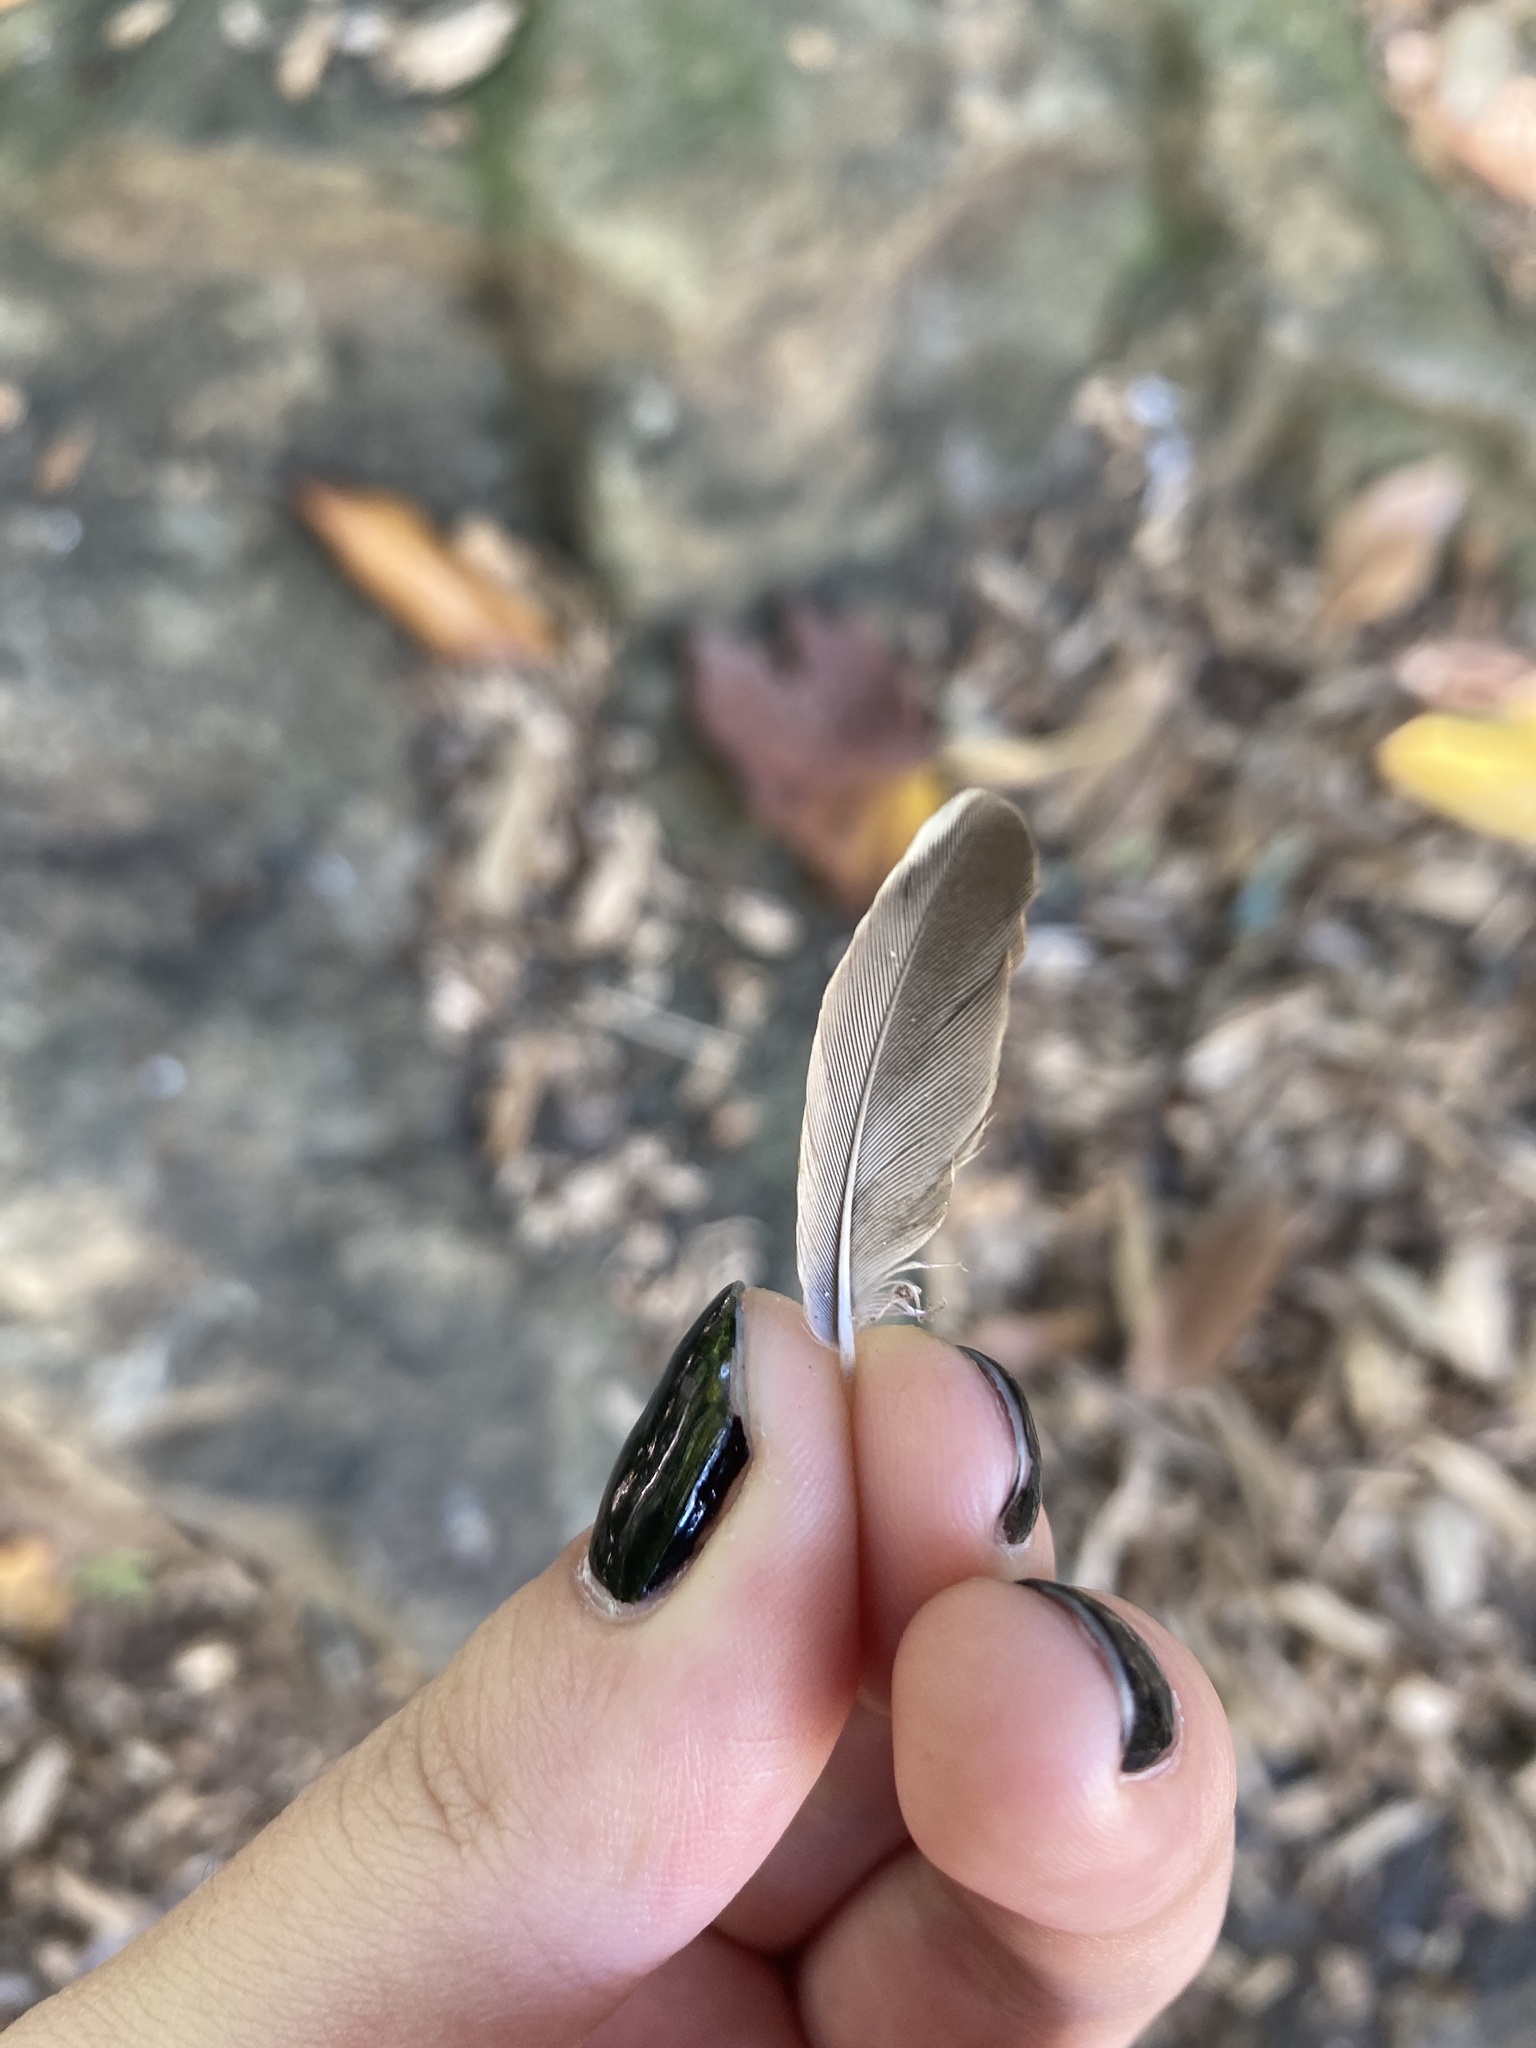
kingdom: Animalia
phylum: Chordata
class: Aves
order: Passeriformes
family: Mimidae
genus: Toxostoma
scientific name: Toxostoma rufum
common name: Brown thrasher
